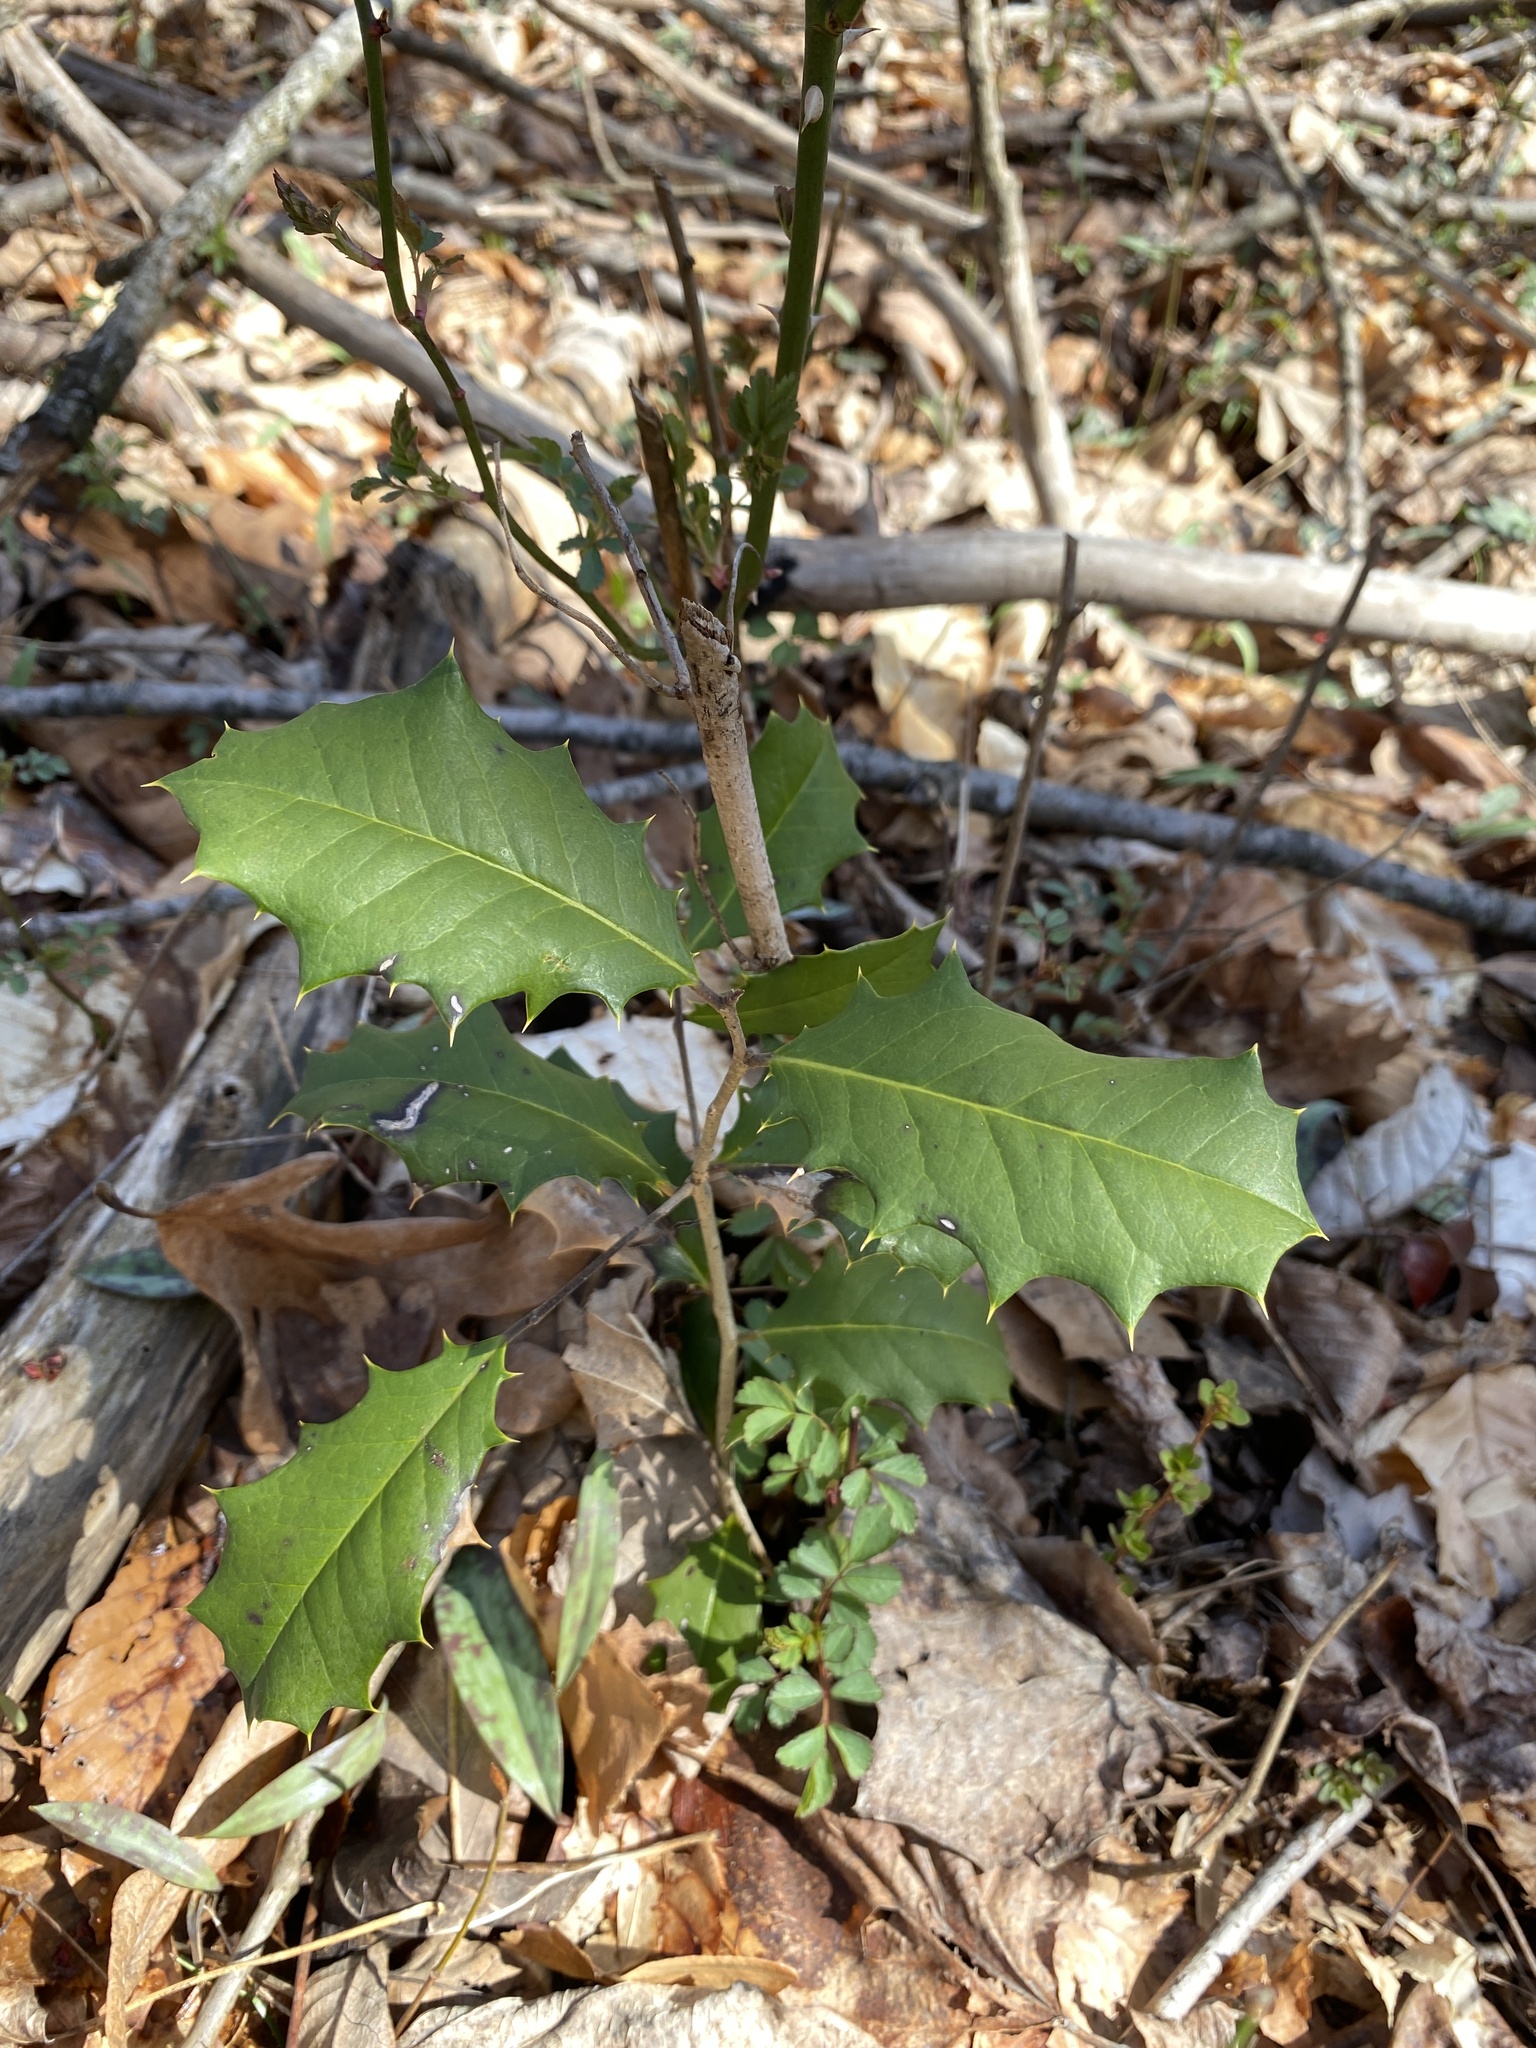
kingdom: Plantae
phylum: Tracheophyta
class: Magnoliopsida
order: Aquifoliales
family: Aquifoliaceae
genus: Ilex
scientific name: Ilex opaca
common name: American holly
